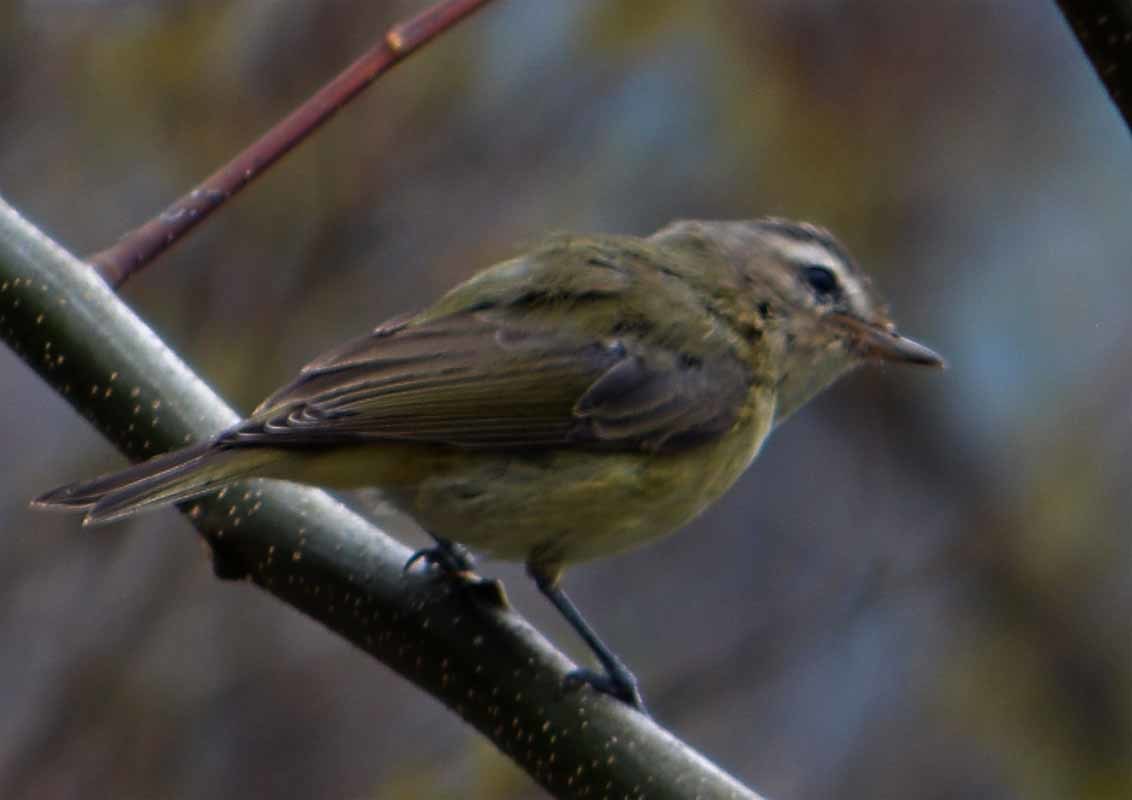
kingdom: Animalia
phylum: Chordata
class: Aves
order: Passeriformes
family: Vireonidae
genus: Vireo
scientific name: Vireo gilvus
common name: Warbling vireo
